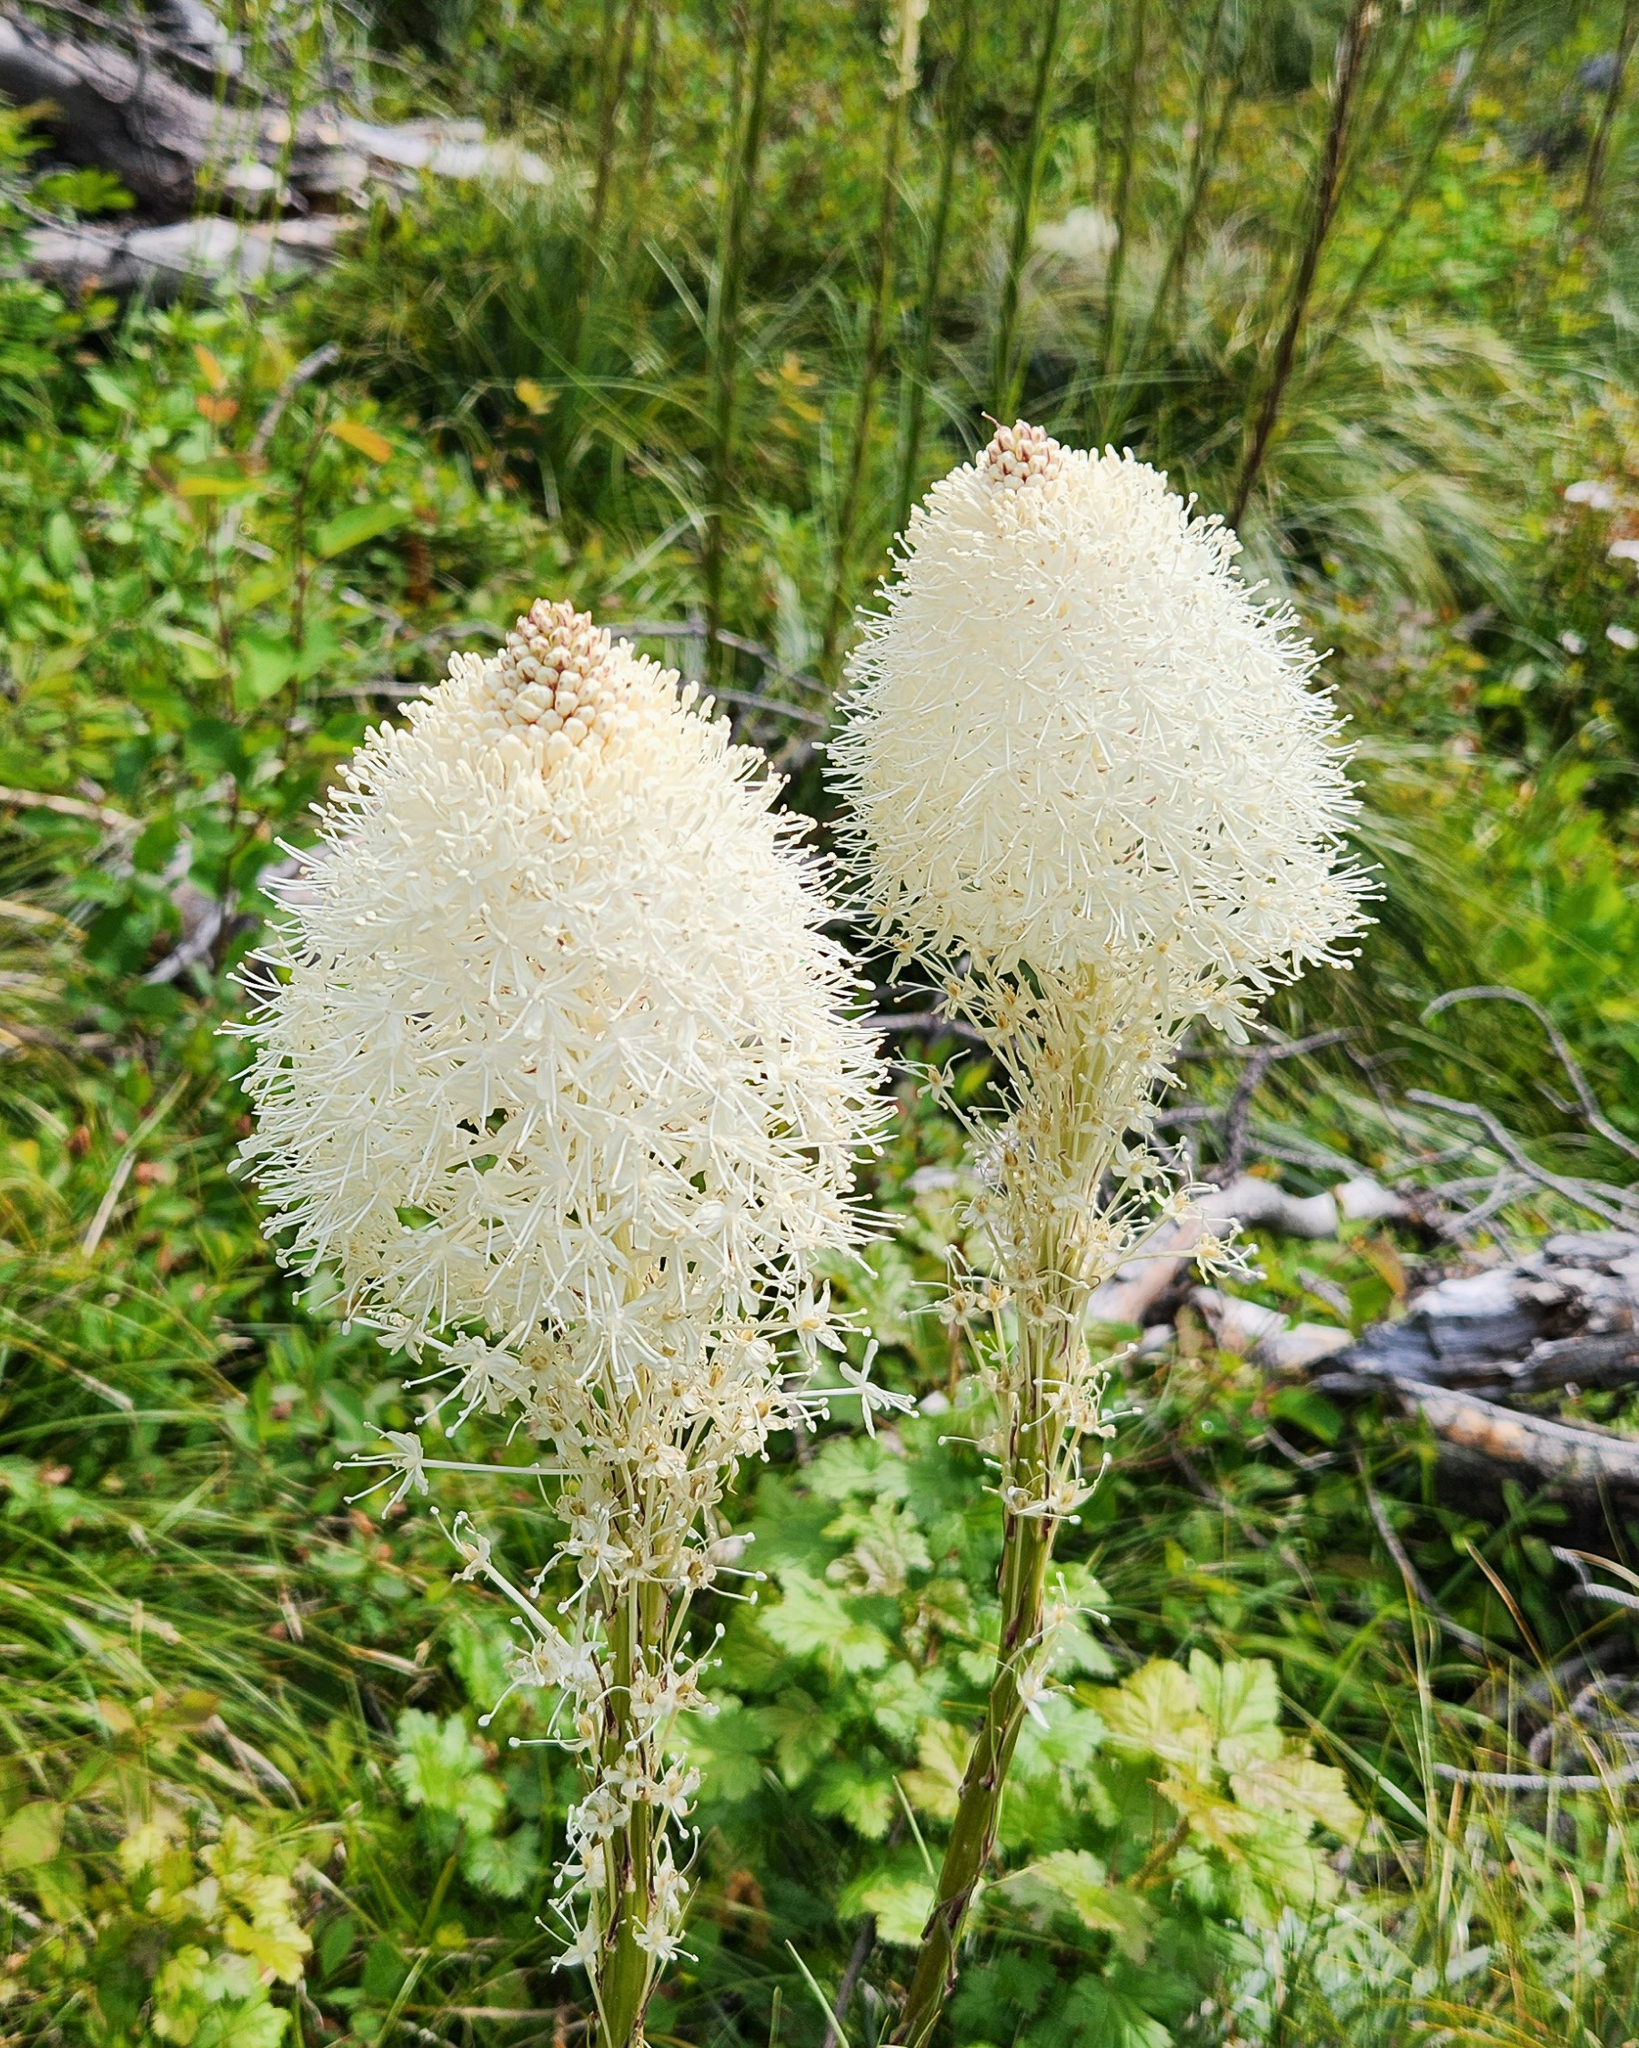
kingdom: Plantae
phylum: Tracheophyta
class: Liliopsida
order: Liliales
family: Melanthiaceae
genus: Xerophyllum
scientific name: Xerophyllum tenax
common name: Bear-grass
